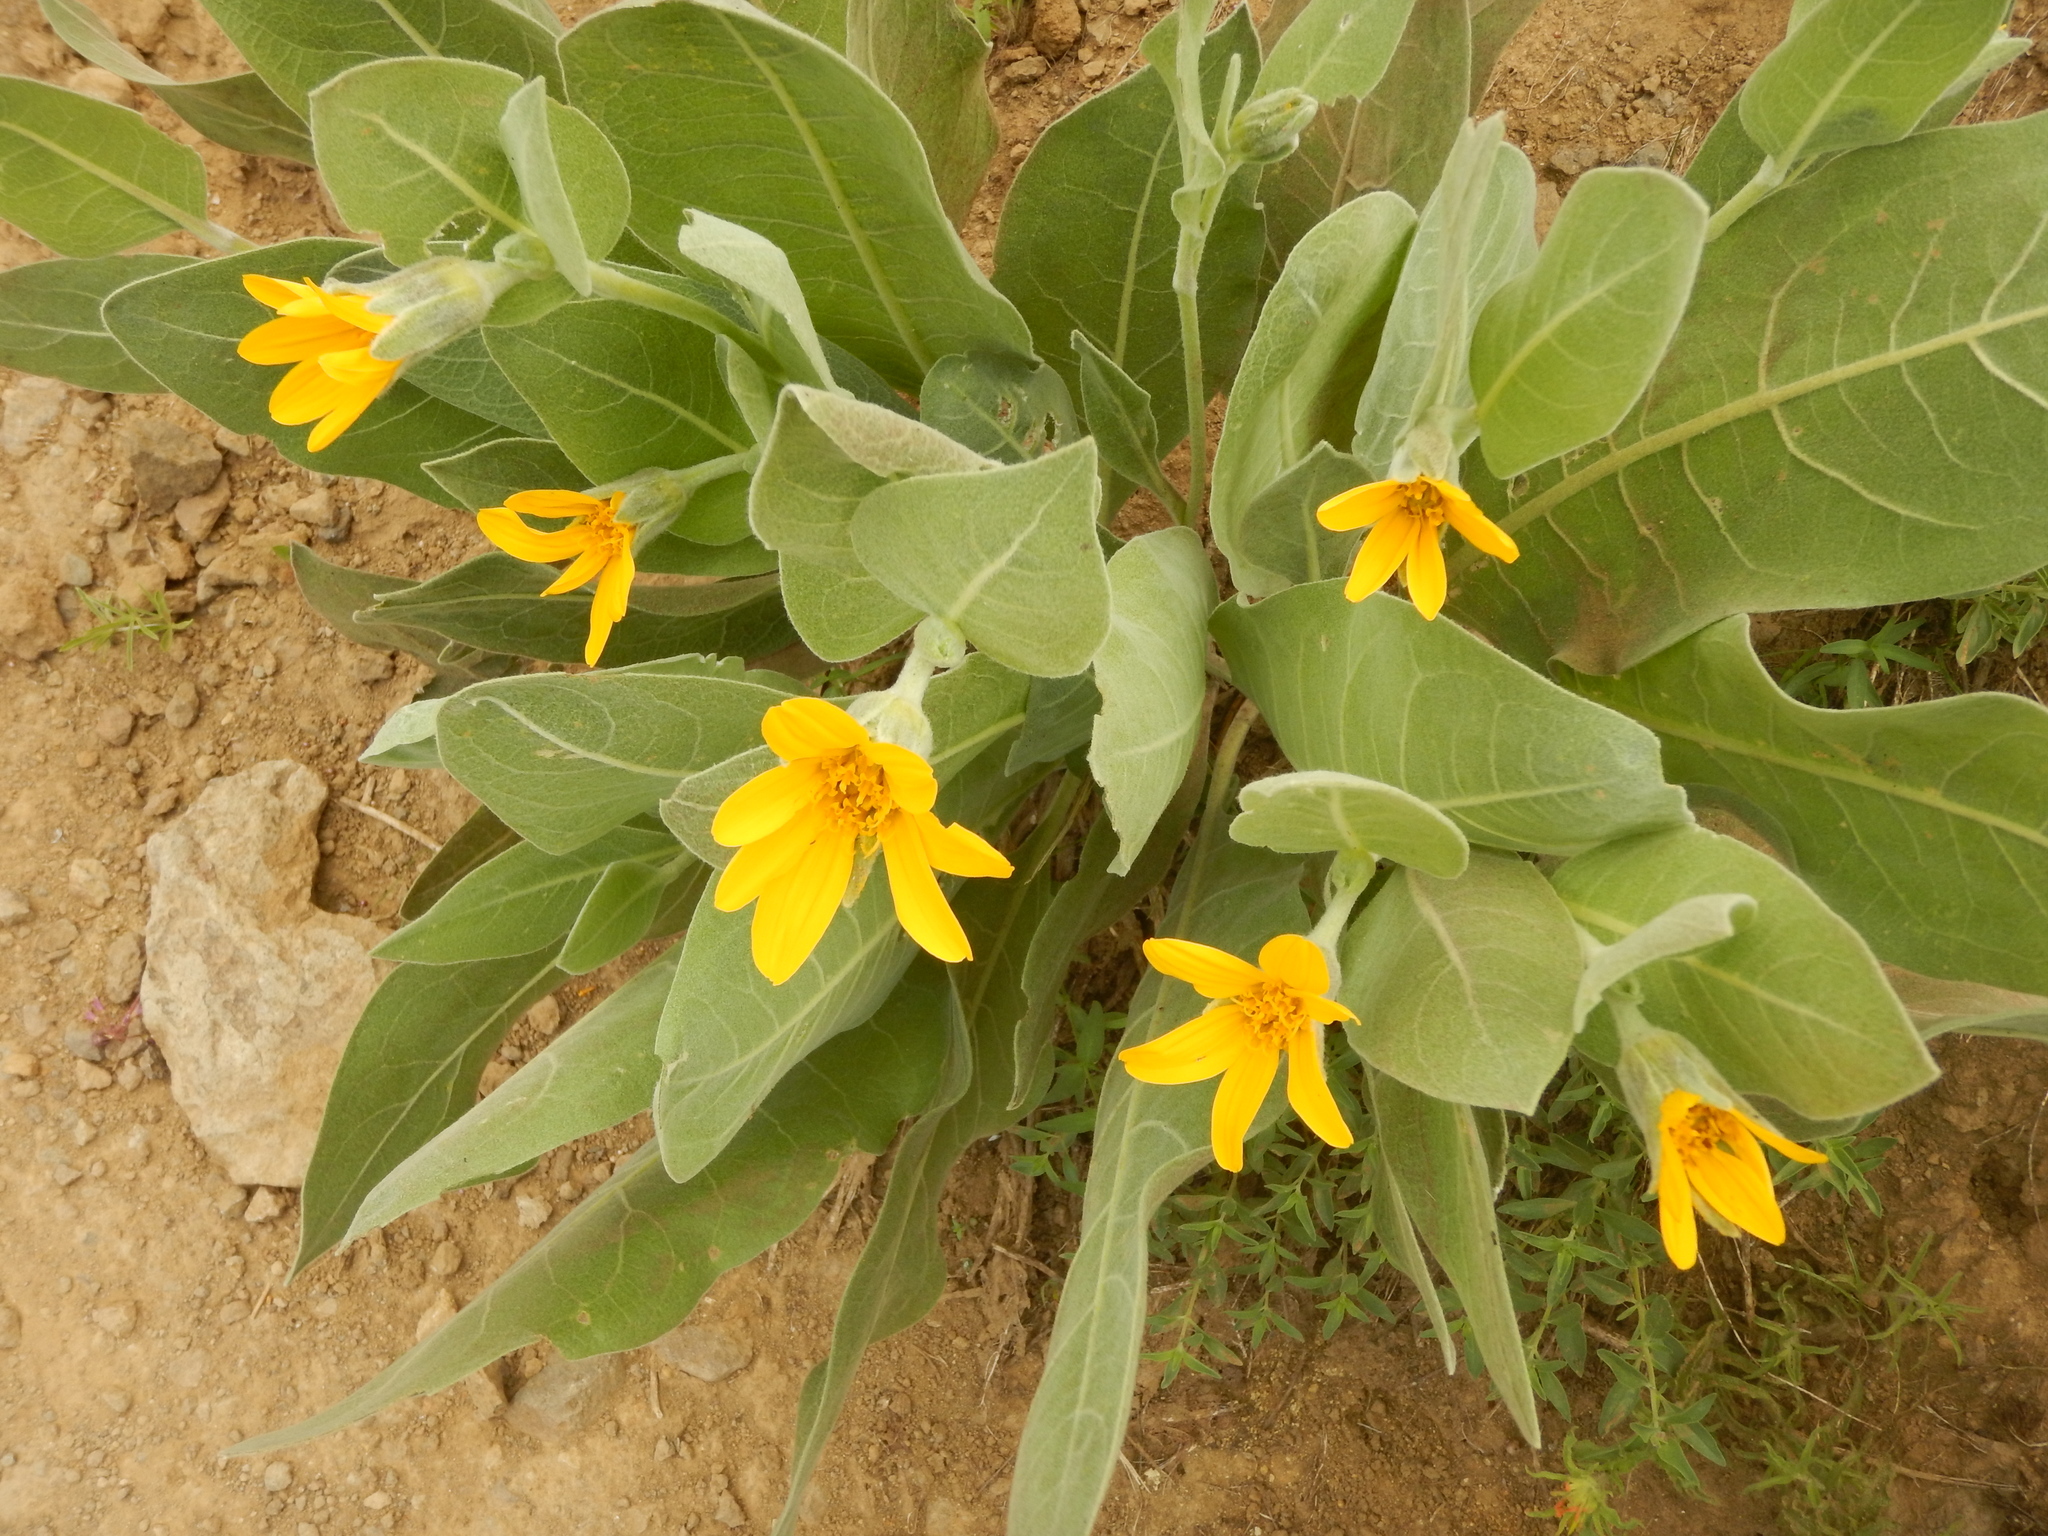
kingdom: Plantae
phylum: Tracheophyta
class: Magnoliopsida
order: Asterales
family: Asteraceae
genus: Wyethia
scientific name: Wyethia mollis
